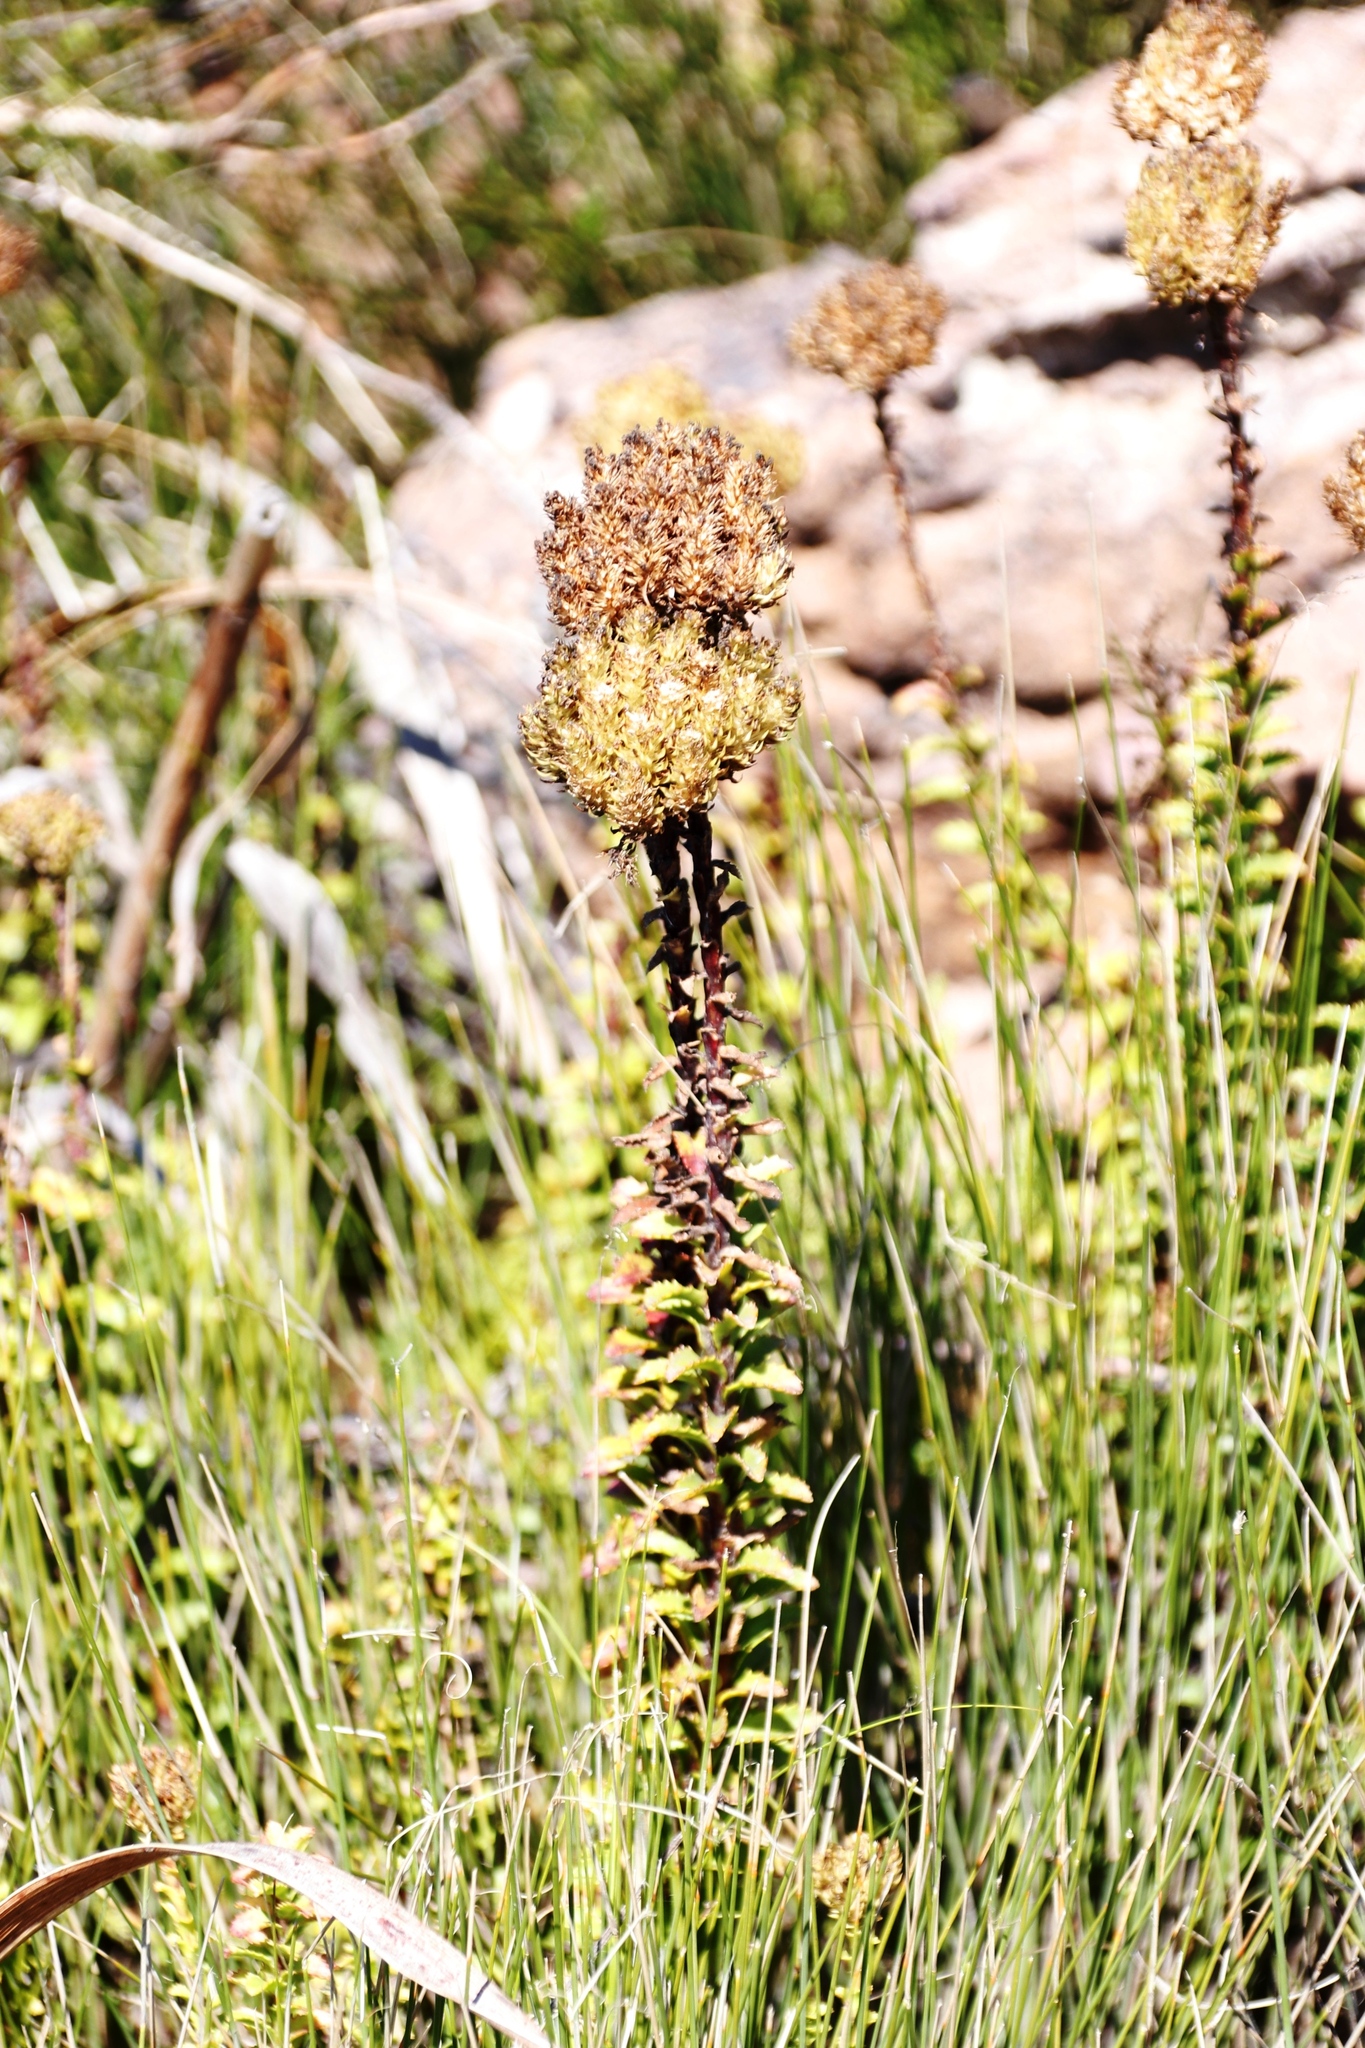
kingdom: Plantae
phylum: Tracheophyta
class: Magnoliopsida
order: Lamiales
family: Scrophulariaceae
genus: Pseudoselago
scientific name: Pseudoselago serrata
